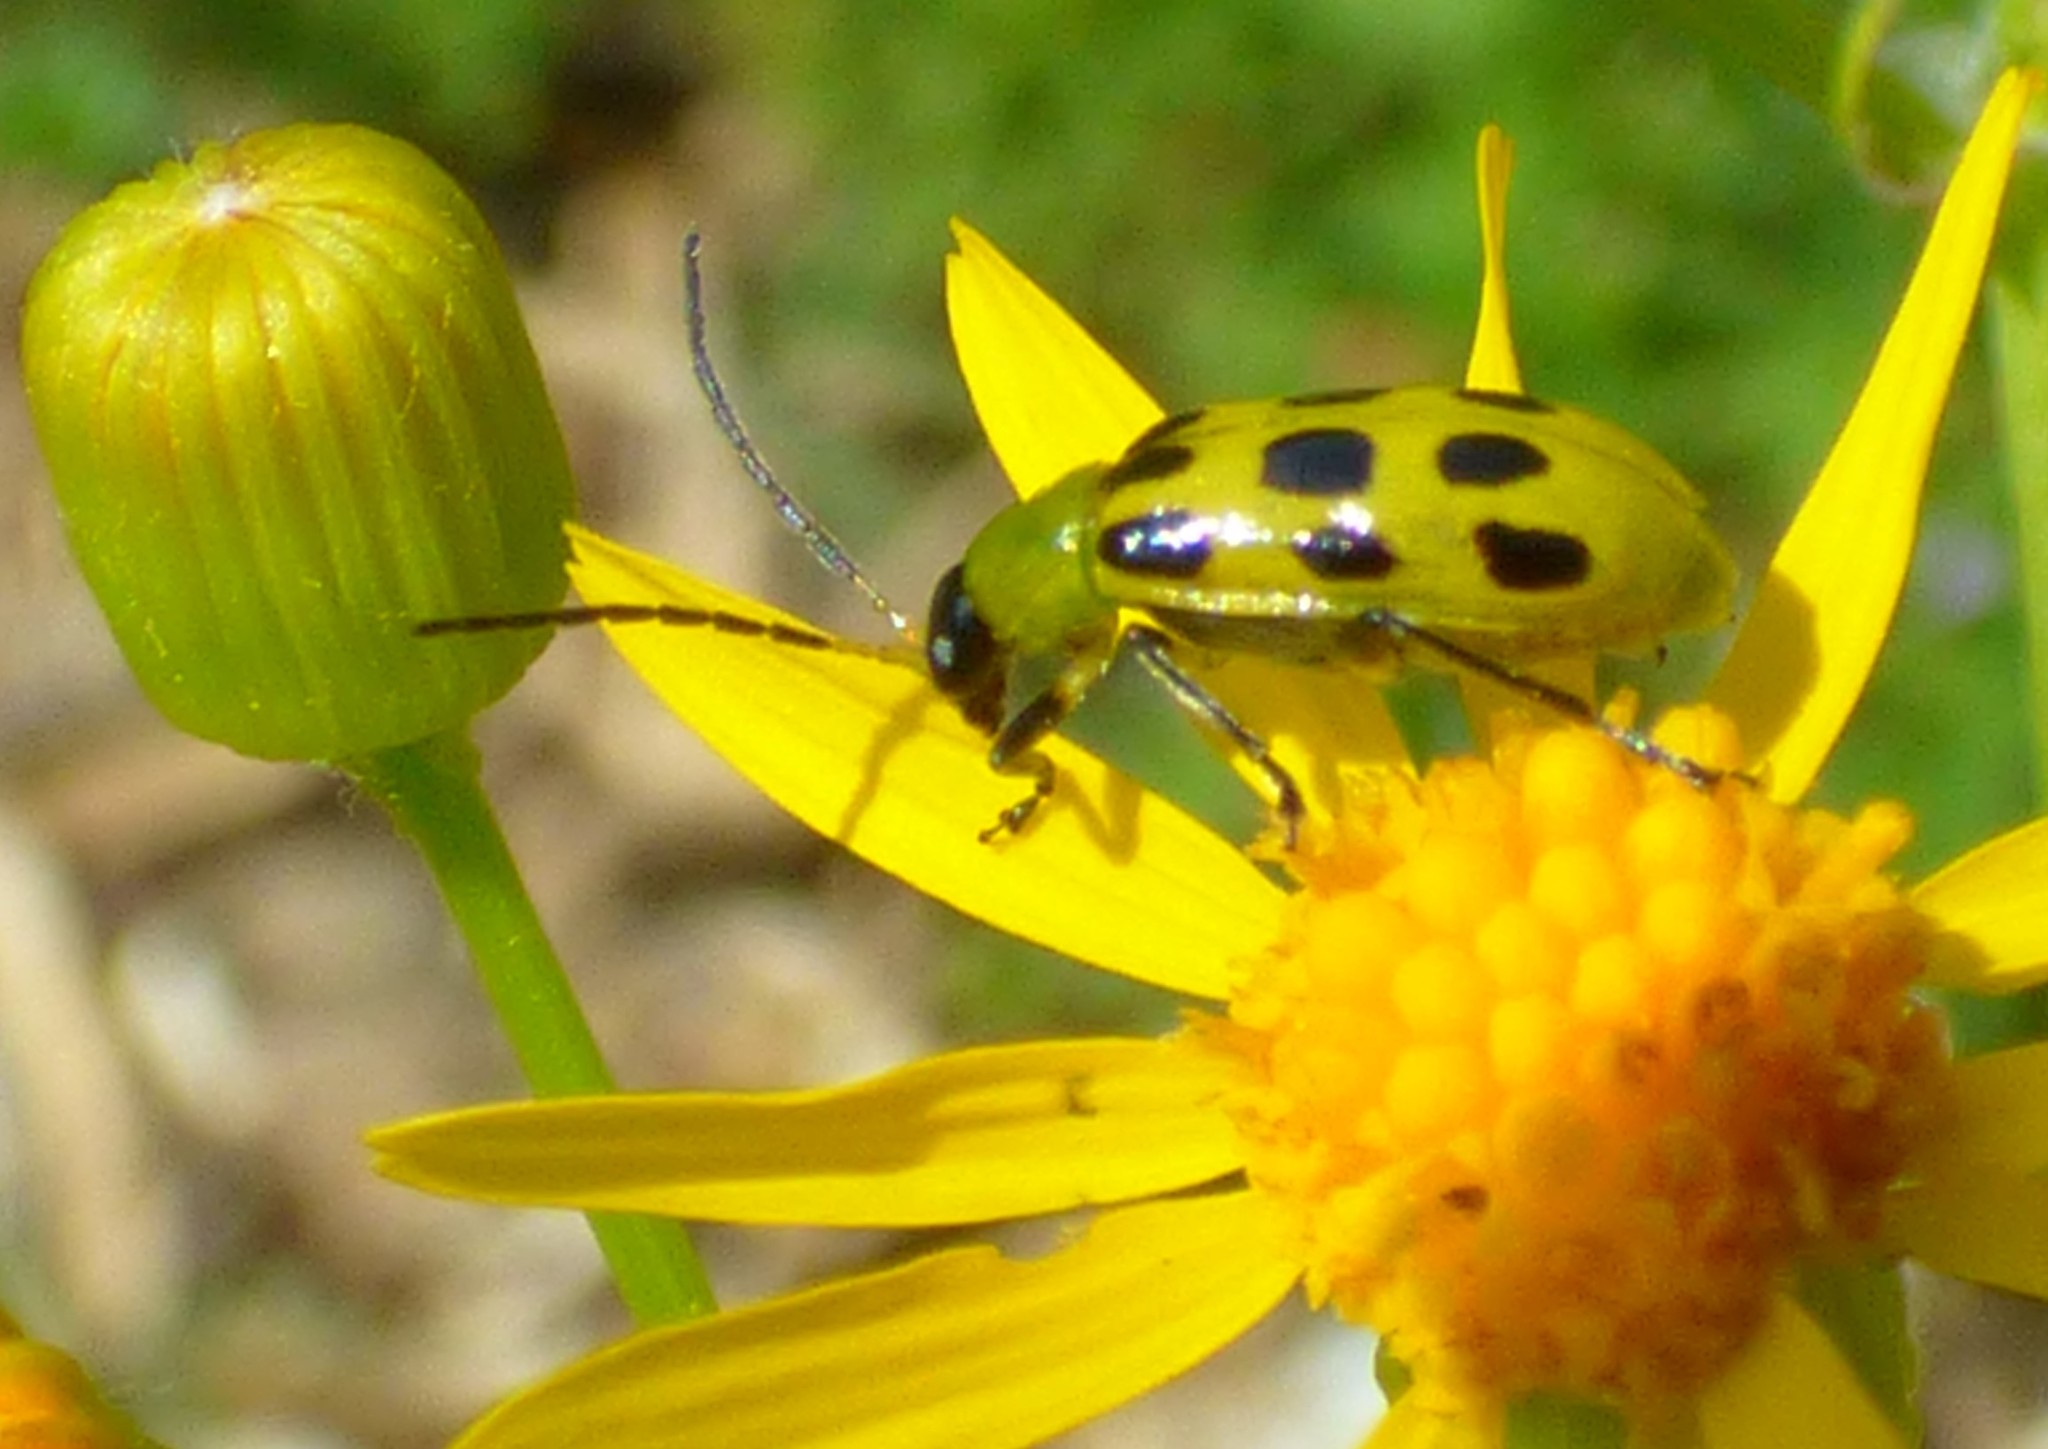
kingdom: Animalia
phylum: Arthropoda
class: Insecta
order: Coleoptera
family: Chrysomelidae
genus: Diabrotica
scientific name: Diabrotica undecimpunctata
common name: Spotted cucumber beetle
